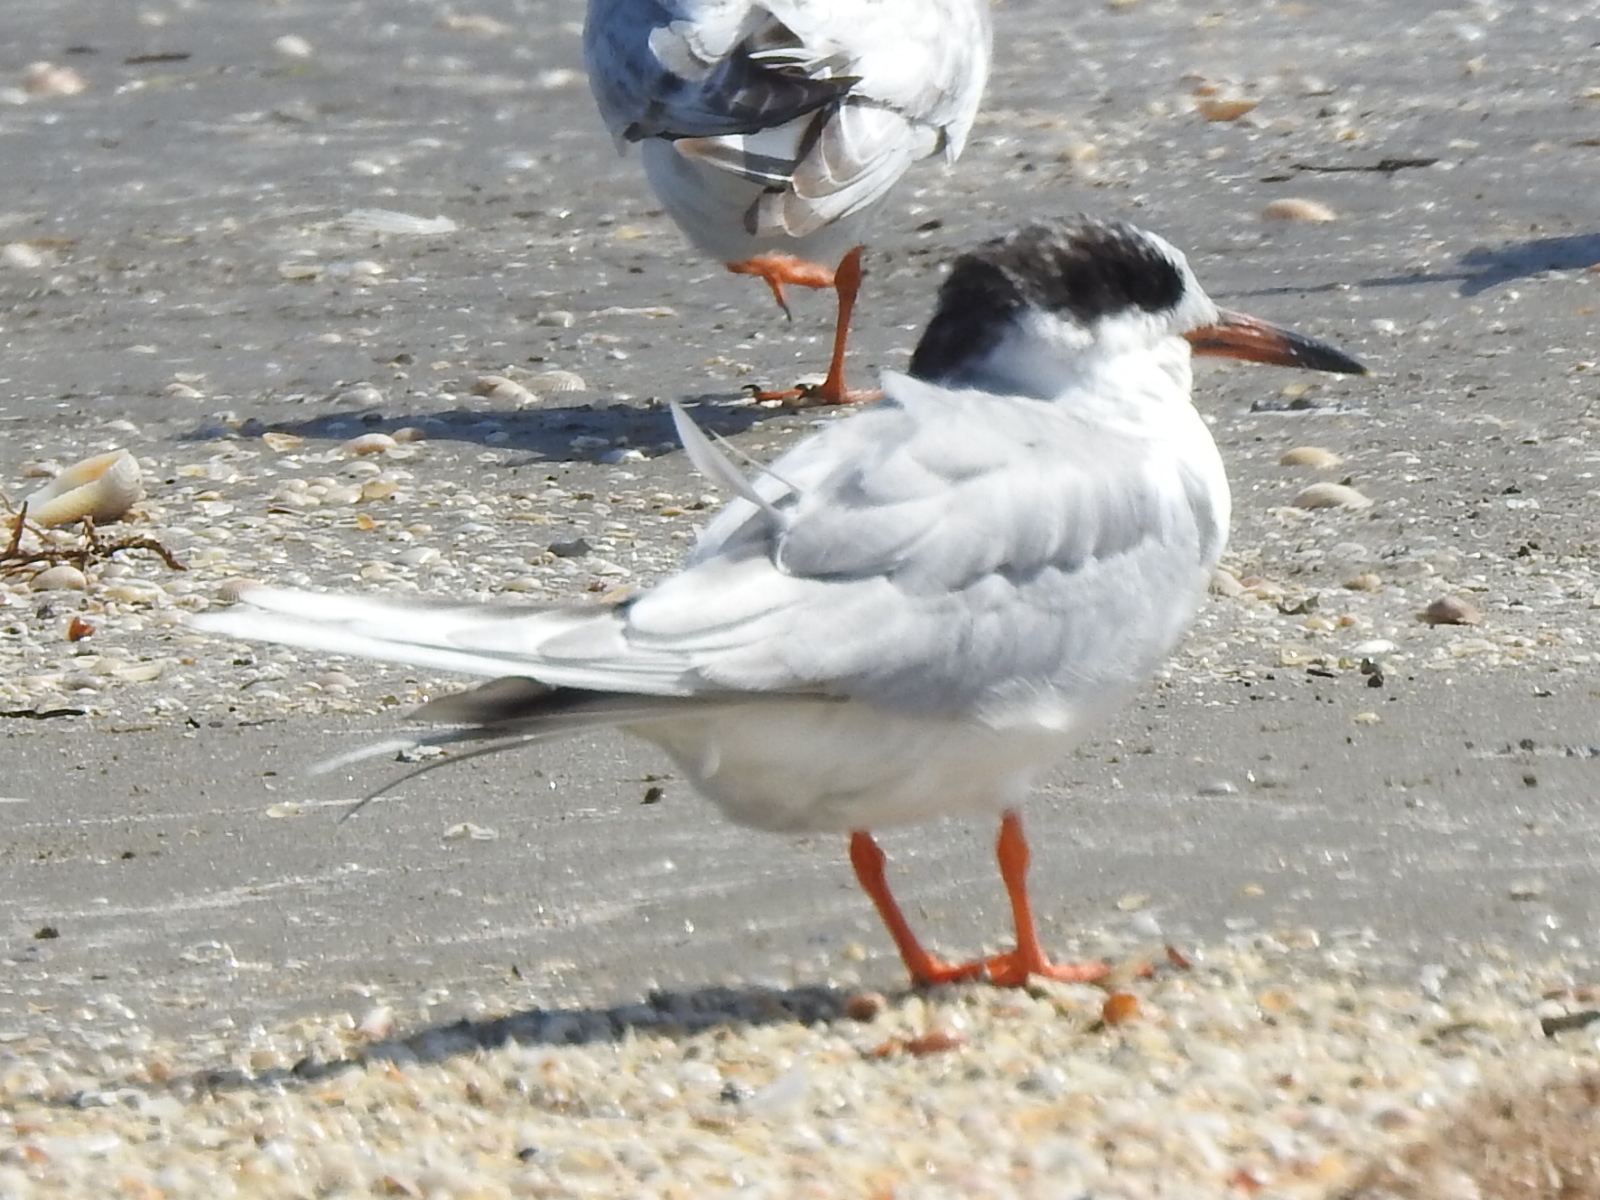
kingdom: Animalia
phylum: Chordata
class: Aves
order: Charadriiformes
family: Laridae
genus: Sterna
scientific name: Sterna forsteri
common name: Forster's tern
